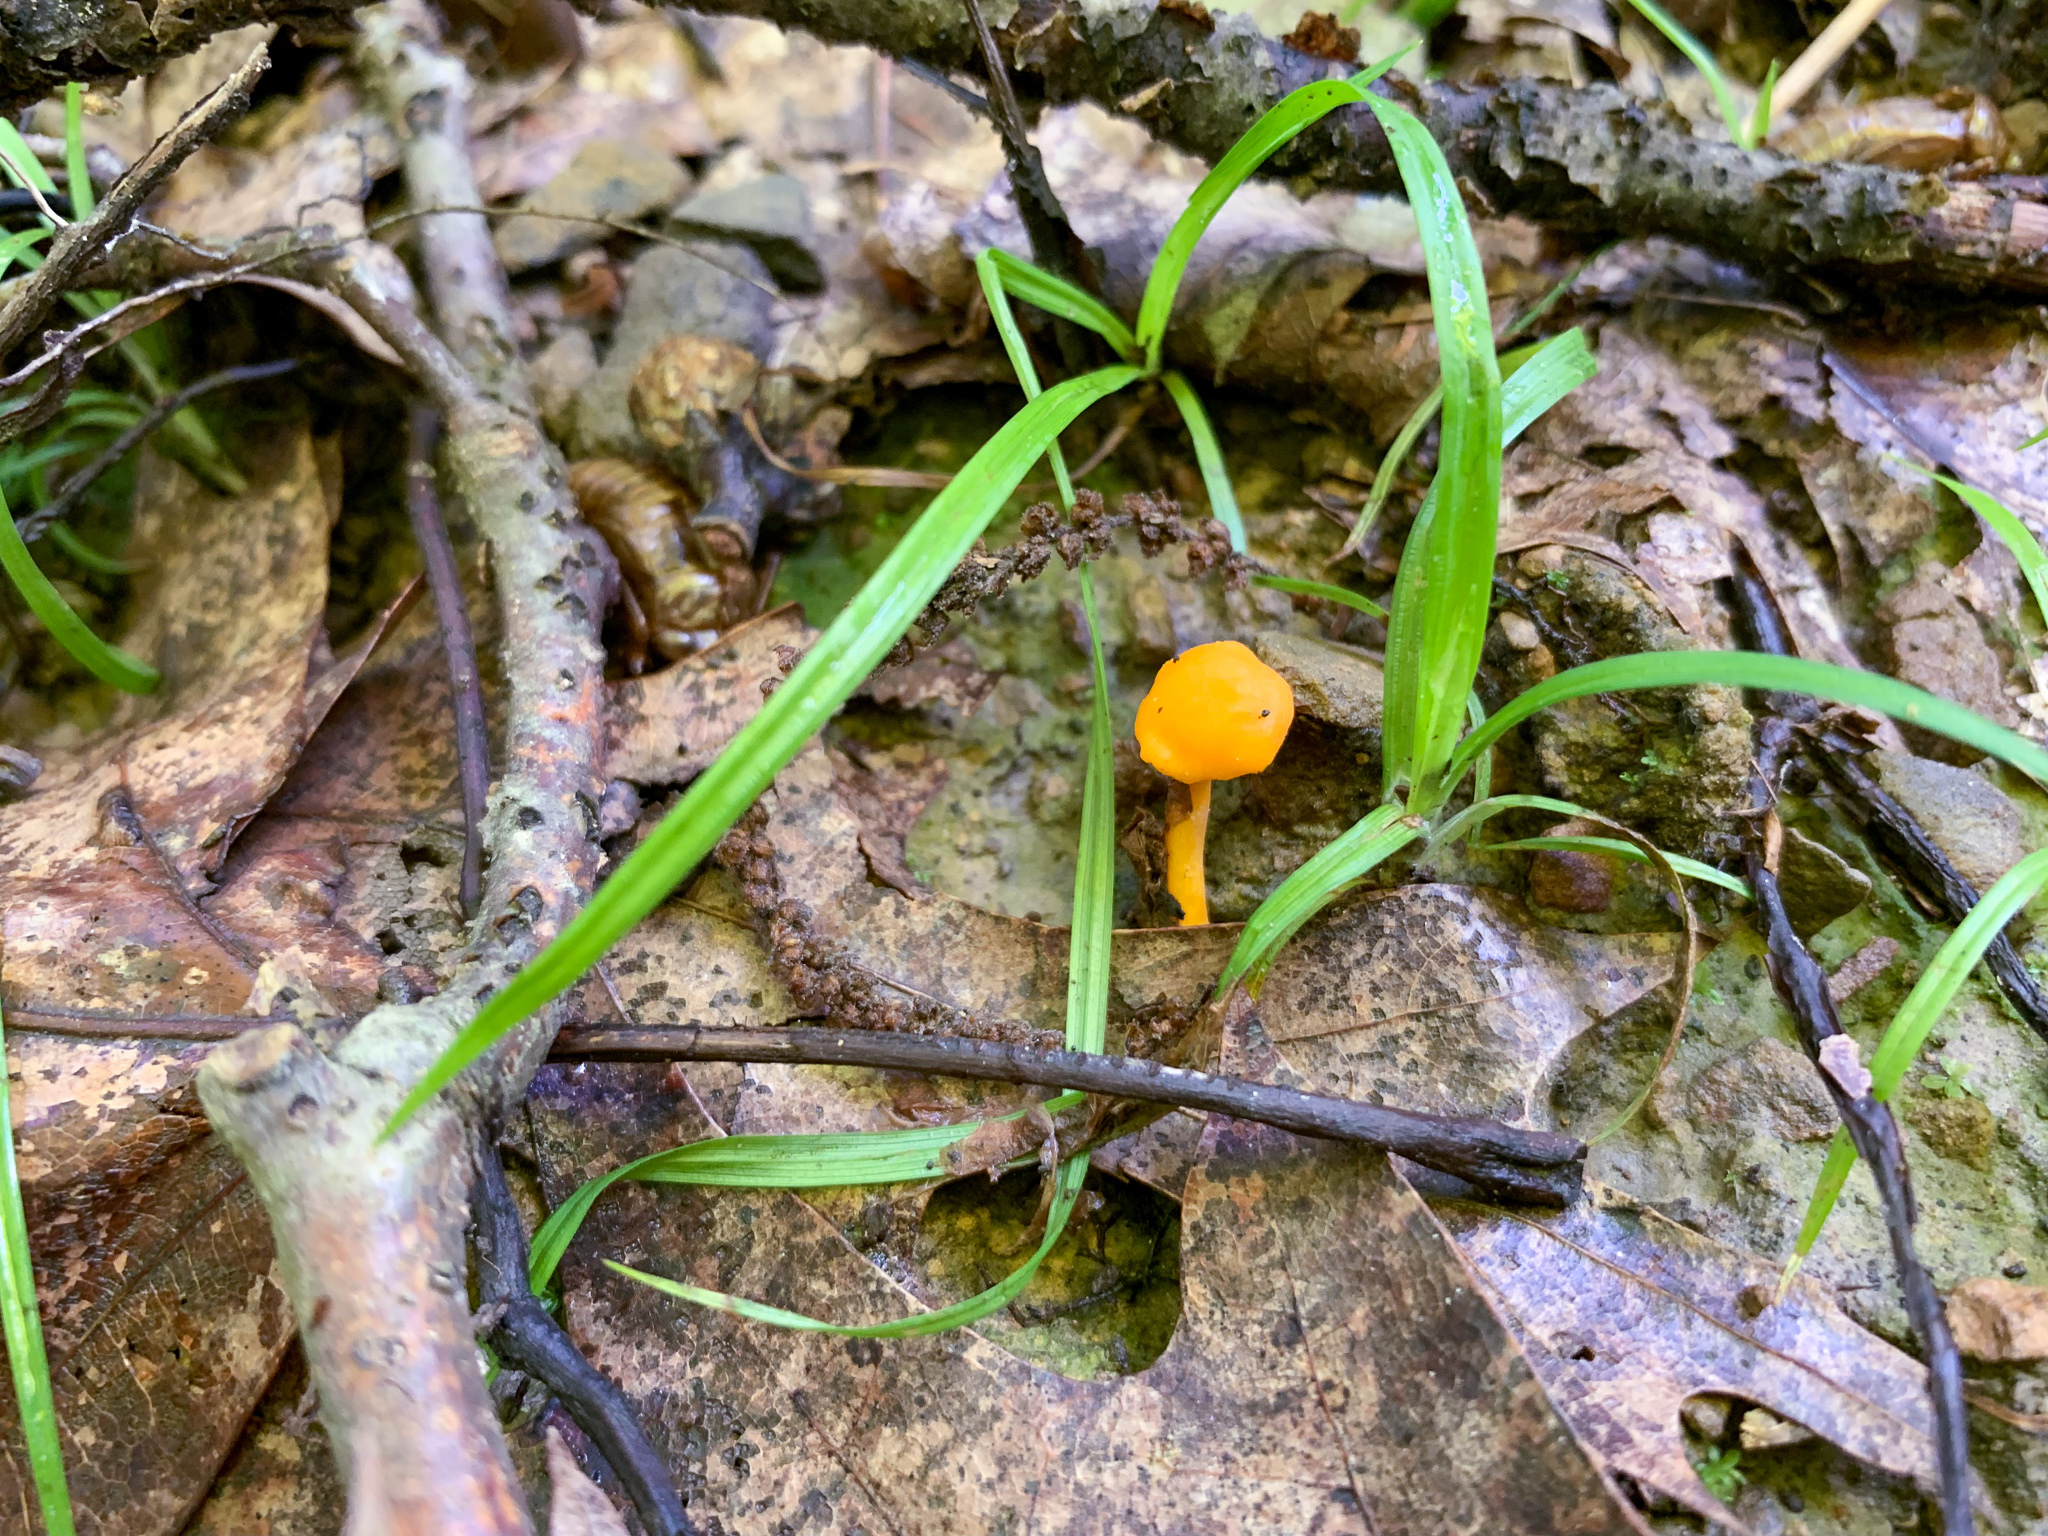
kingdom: Fungi
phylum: Basidiomycota
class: Agaricomycetes
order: Cantharellales
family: Hydnaceae
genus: Cantharellus
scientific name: Cantharellus minor
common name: Small chanterelle
